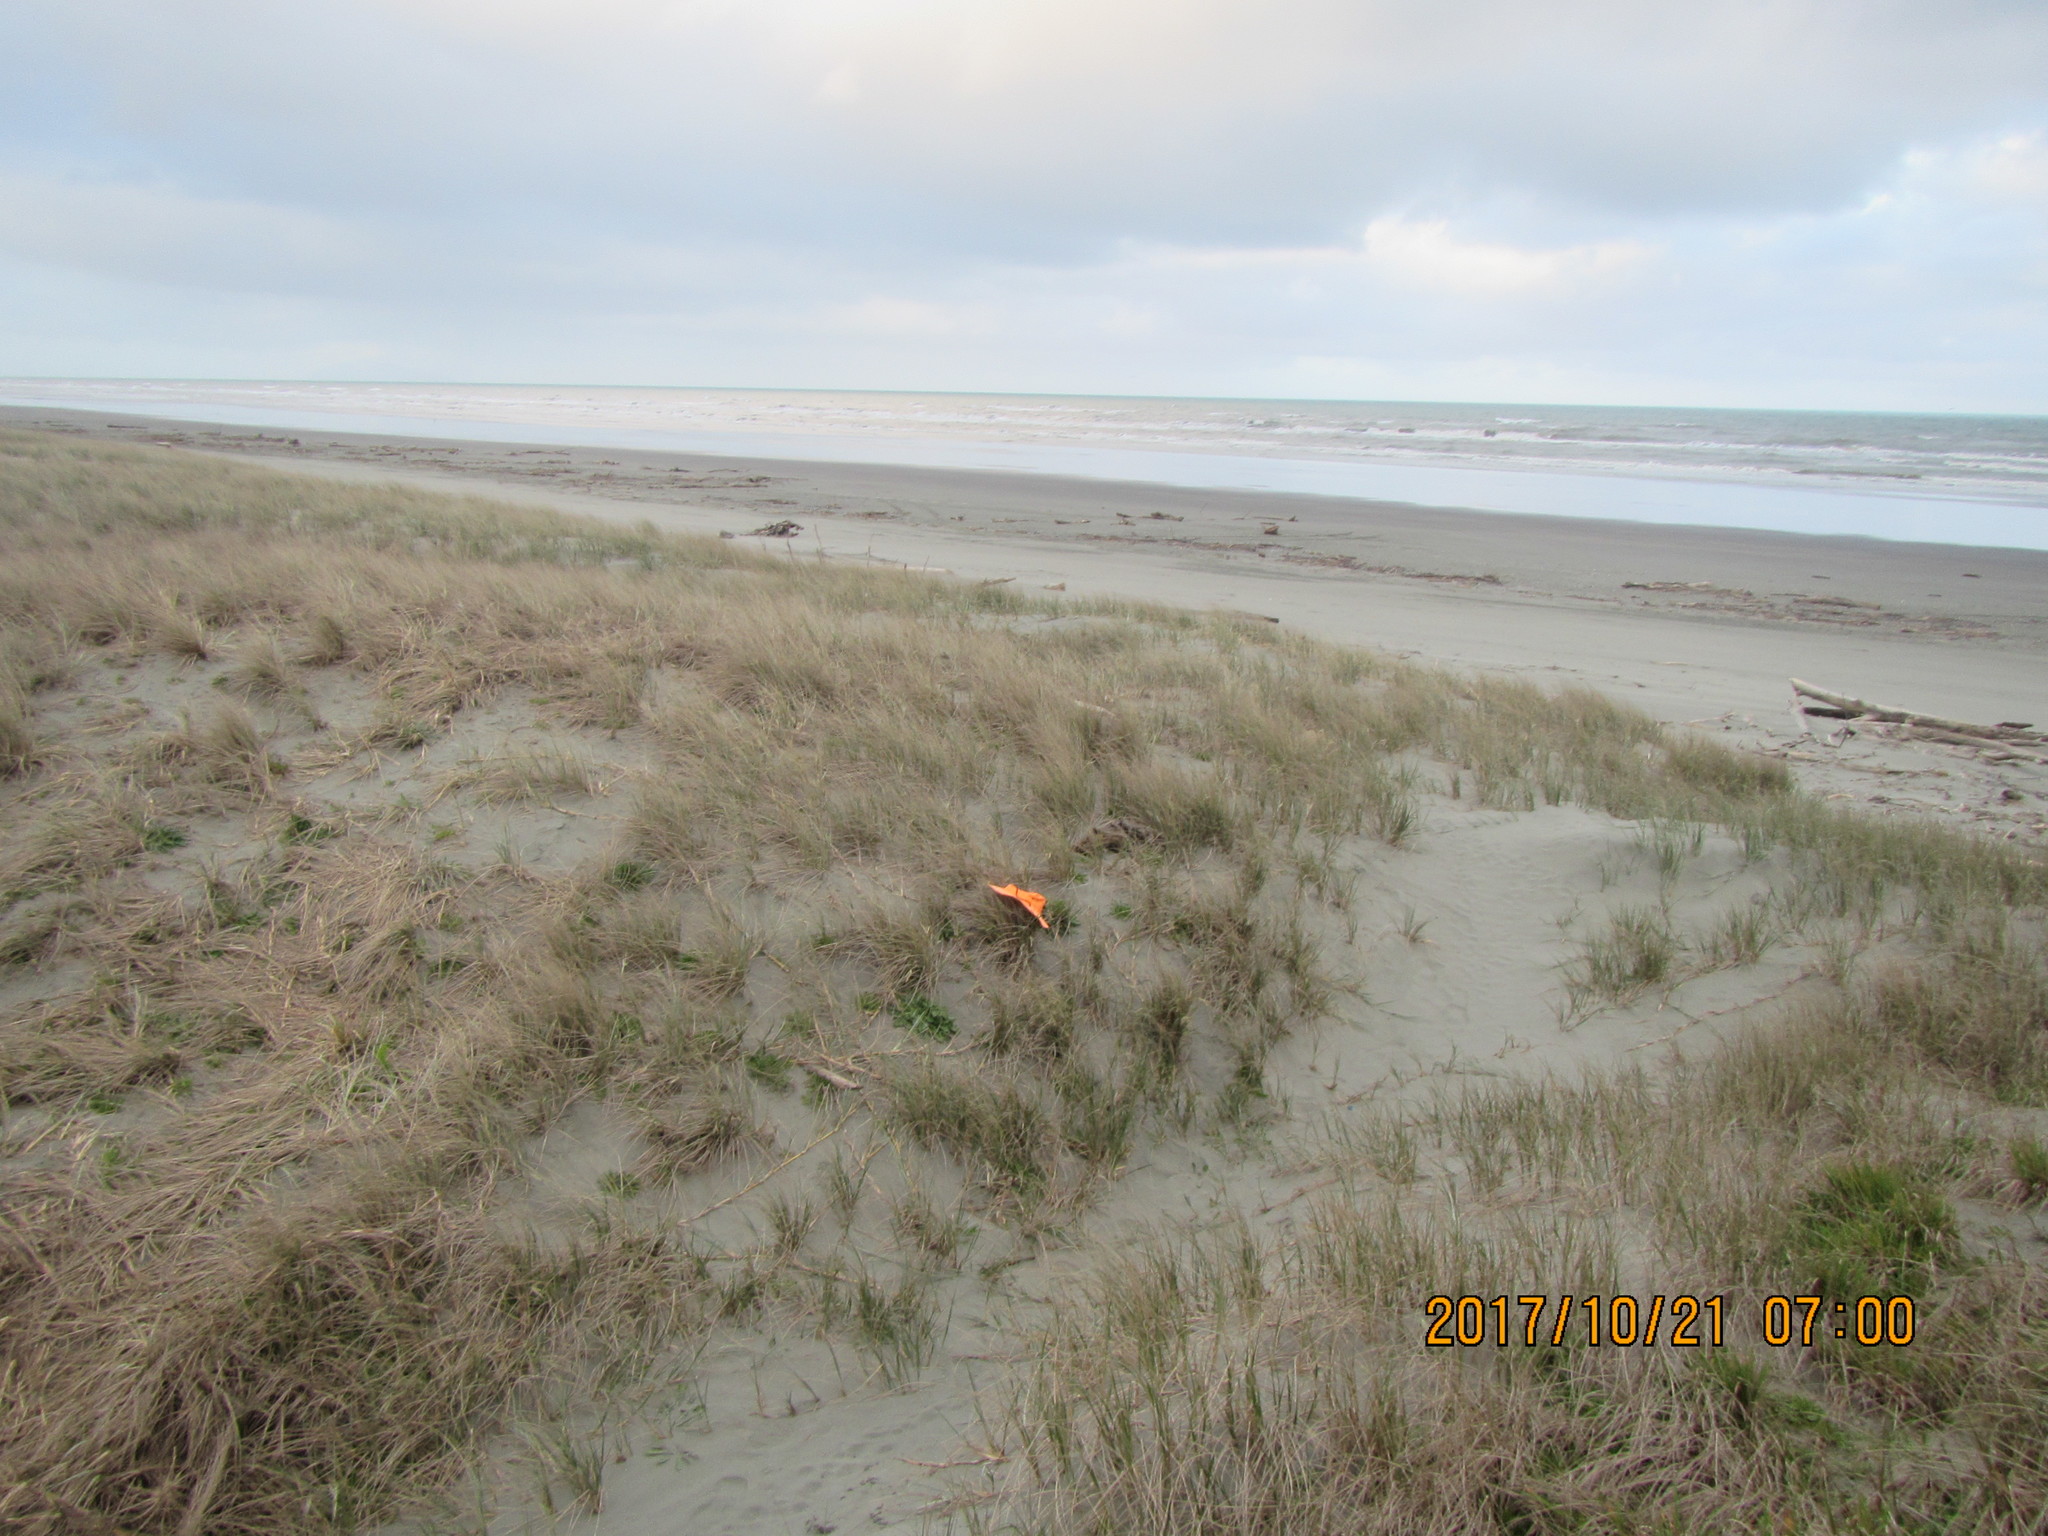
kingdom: Animalia
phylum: Arthropoda
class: Insecta
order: Diptera
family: Syrphidae
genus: Eristalis
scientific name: Eristalis tenax
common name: Drone fly
